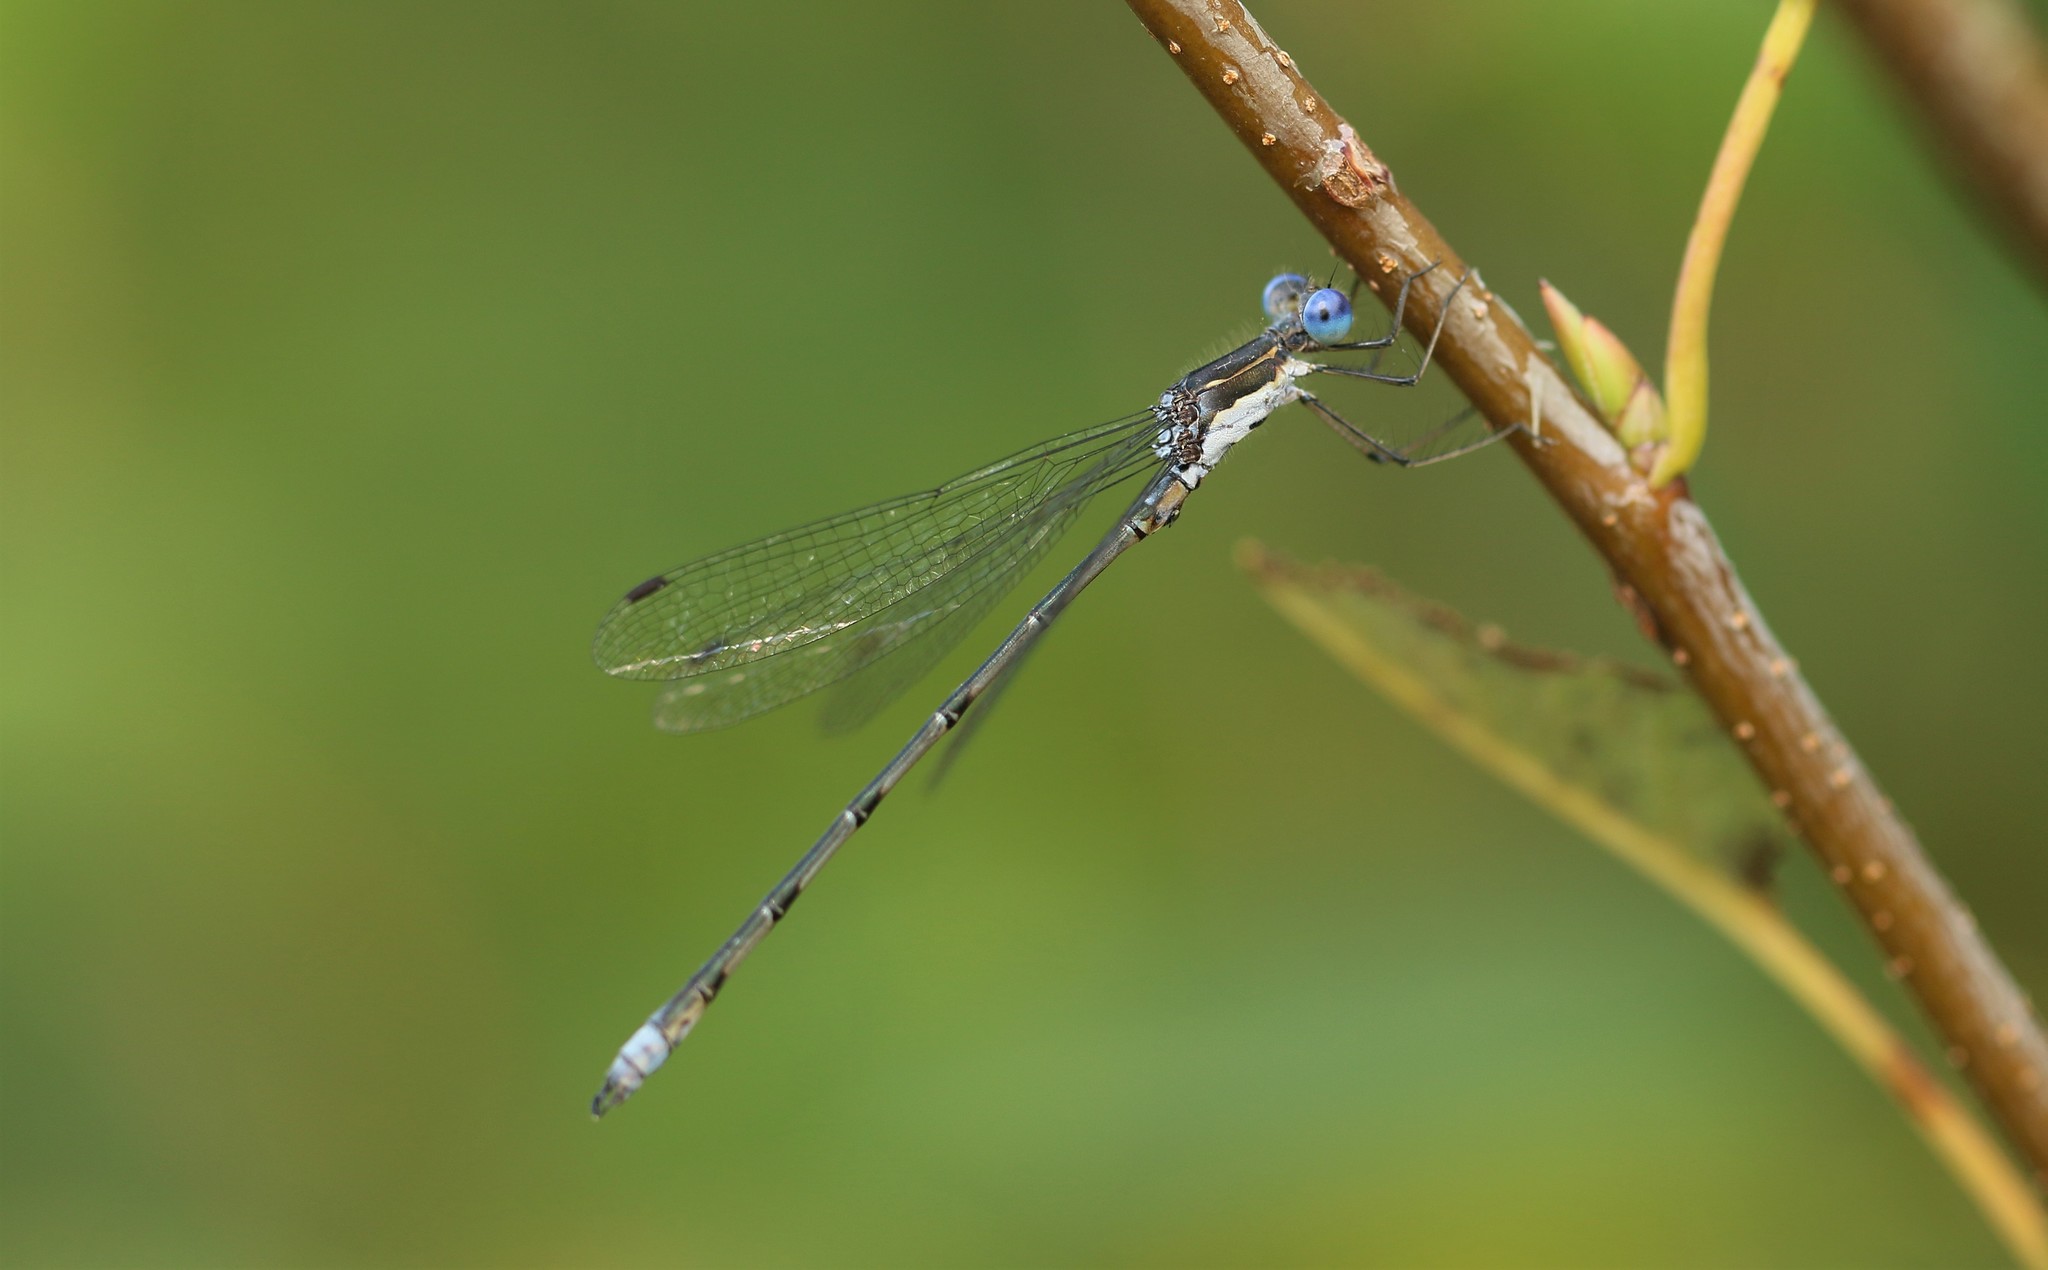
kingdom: Animalia
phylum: Arthropoda
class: Insecta
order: Odonata
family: Lestidae
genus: Lestes
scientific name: Lestes congener
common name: Spotted spreadwing
